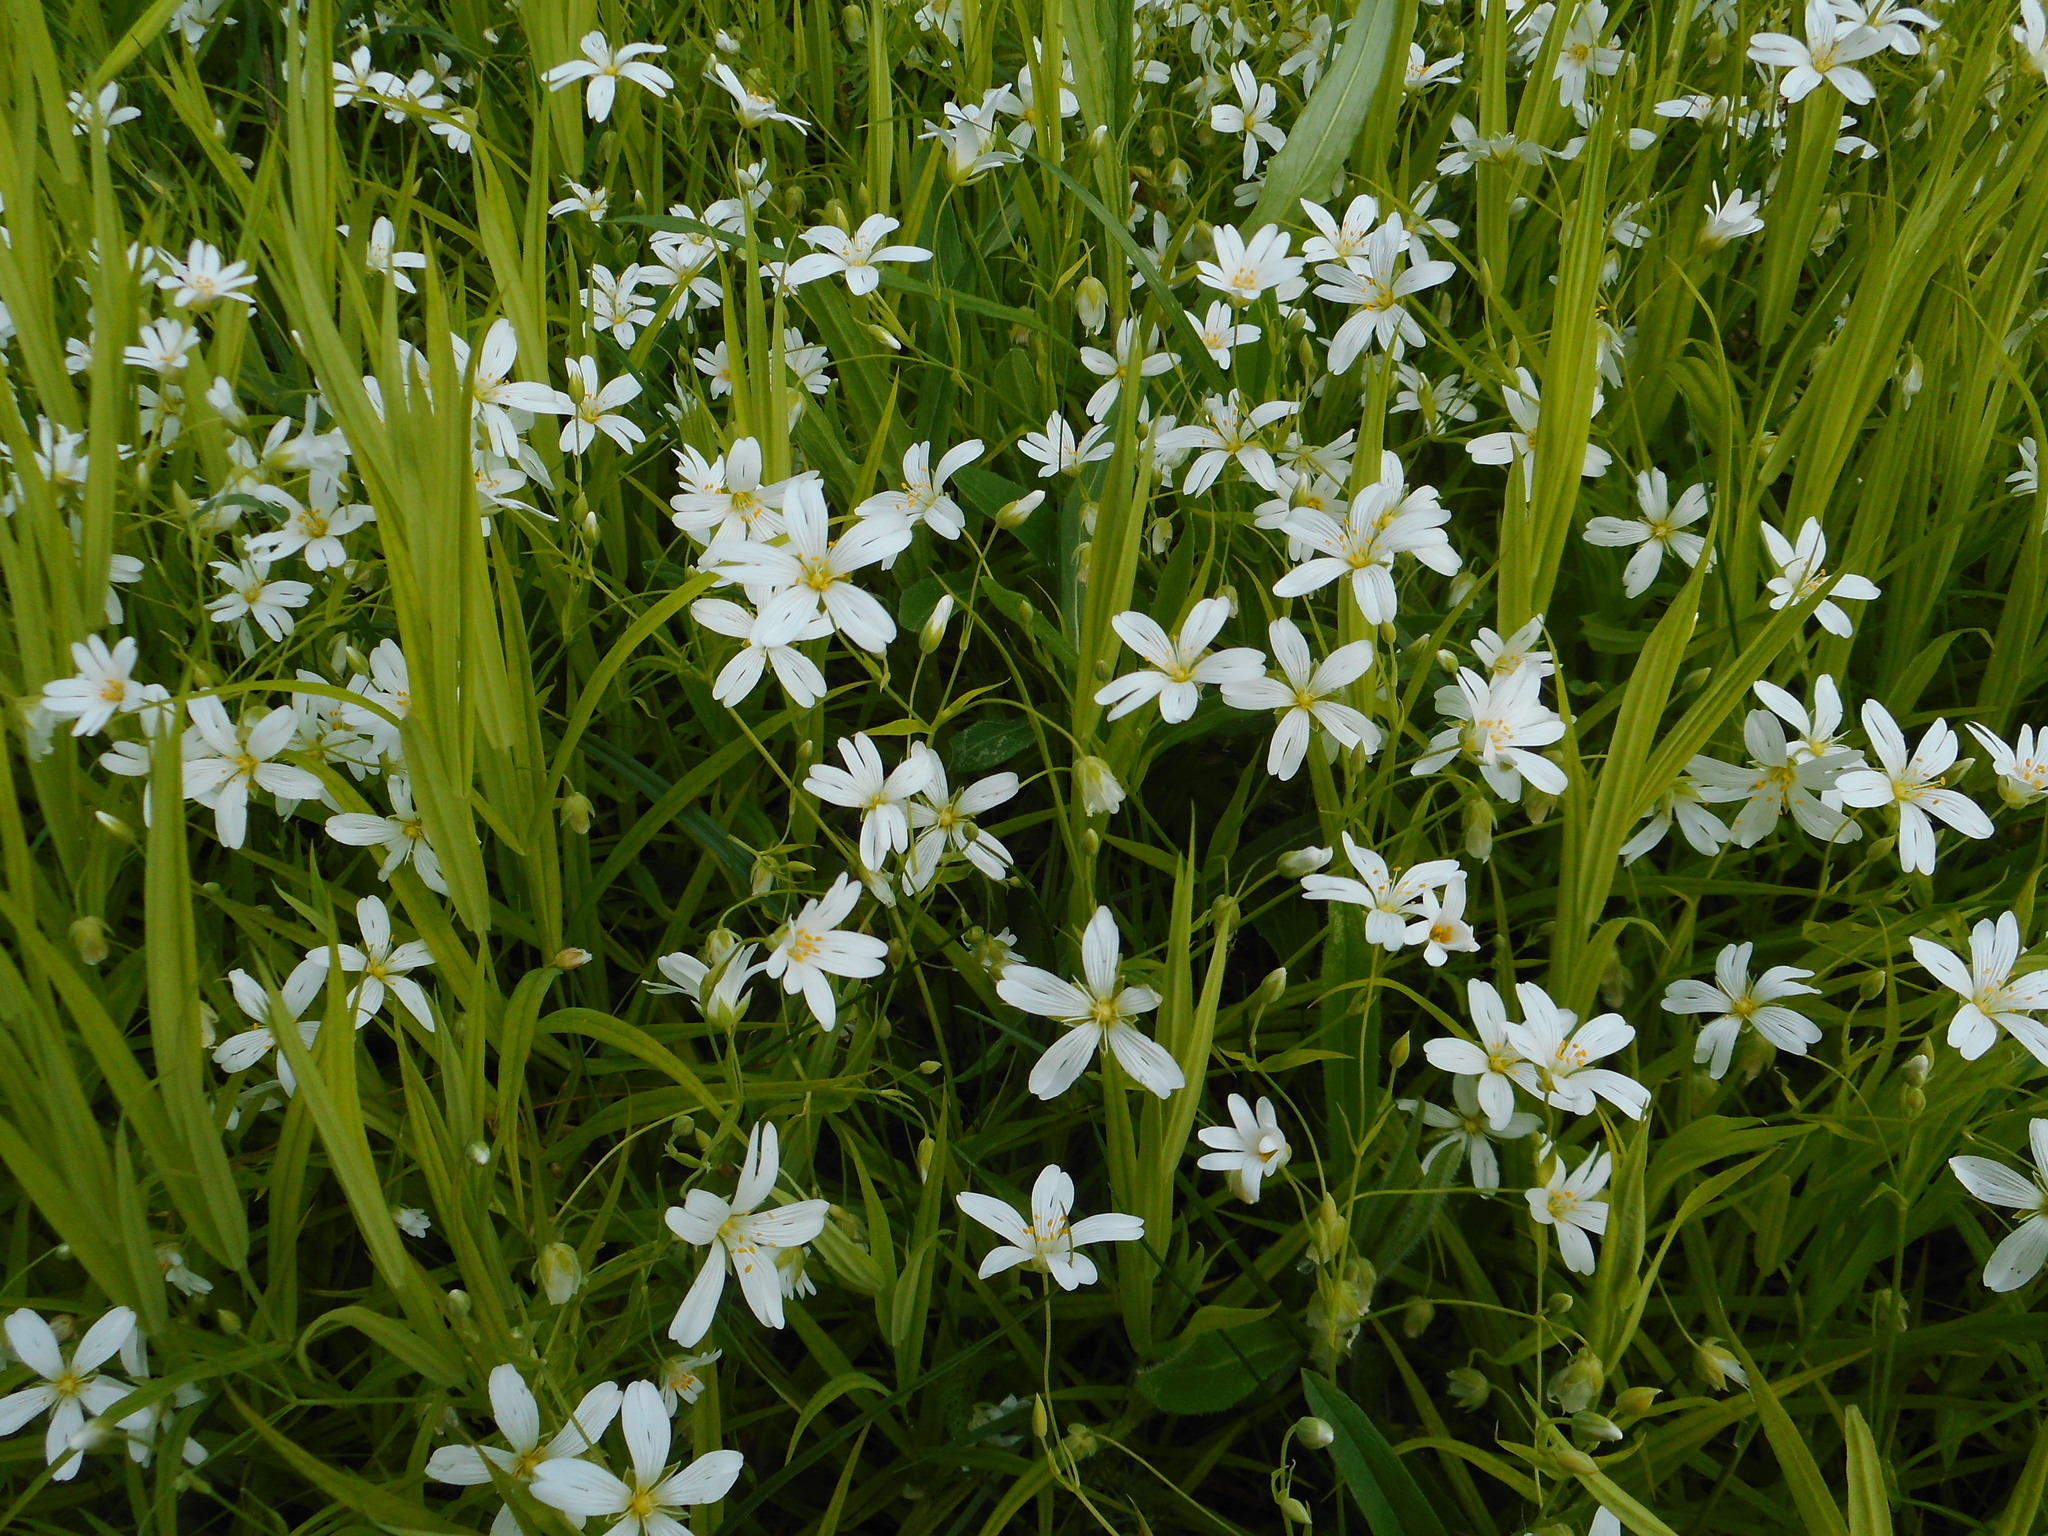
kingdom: Plantae
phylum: Tracheophyta
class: Magnoliopsida
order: Caryophyllales
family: Caryophyllaceae
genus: Rabelera
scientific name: Rabelera holostea
